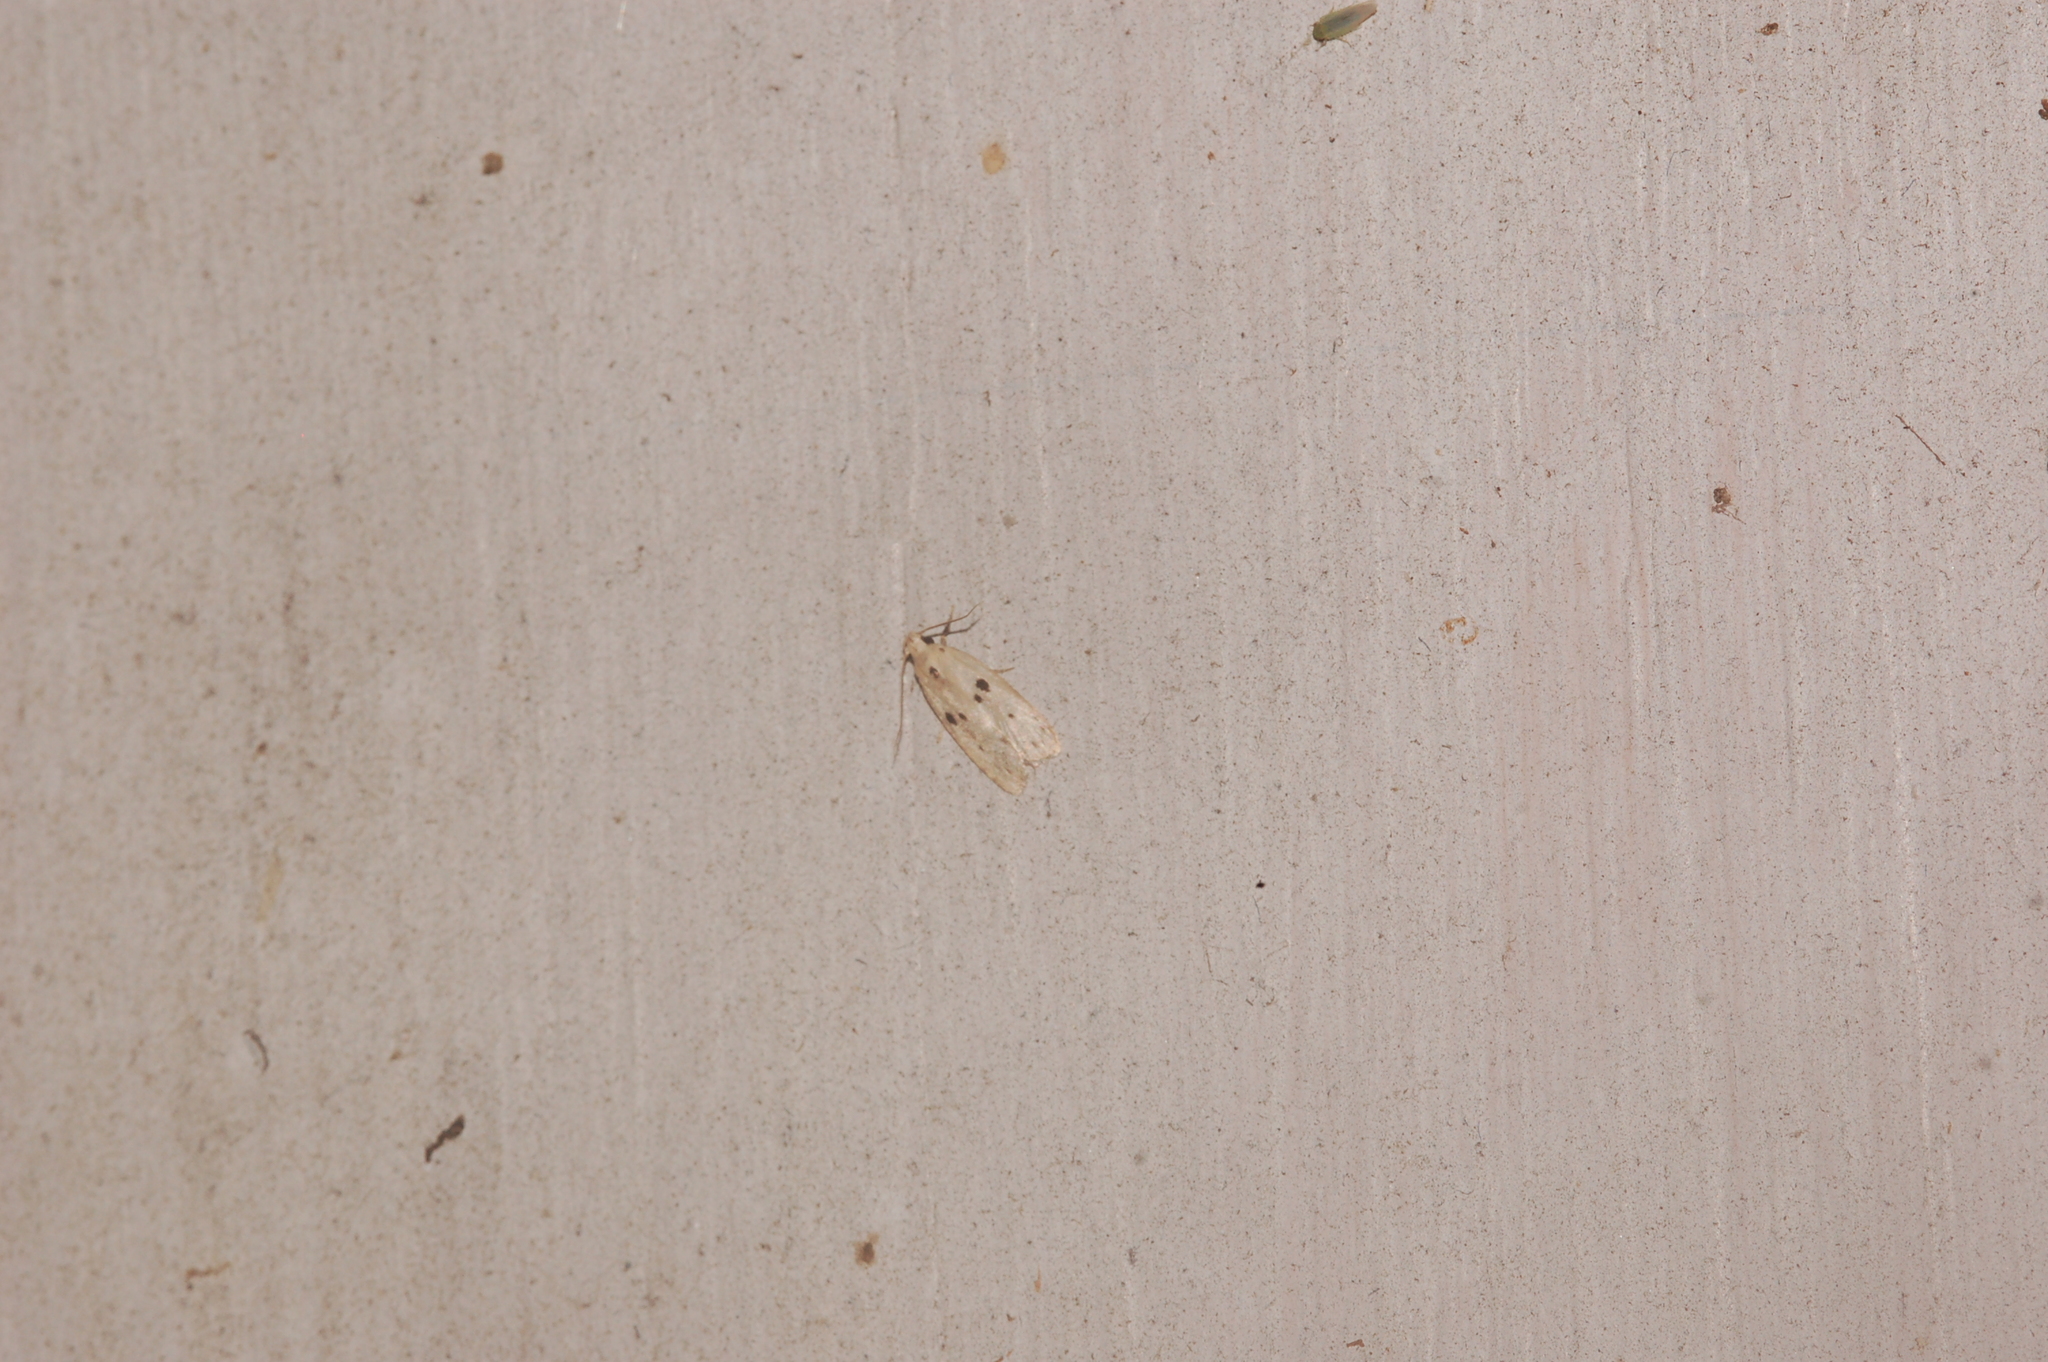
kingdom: Animalia
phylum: Arthropoda
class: Insecta
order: Lepidoptera
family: Peleopodidae
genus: Scythropiodes
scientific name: Scythropiodes issikii
